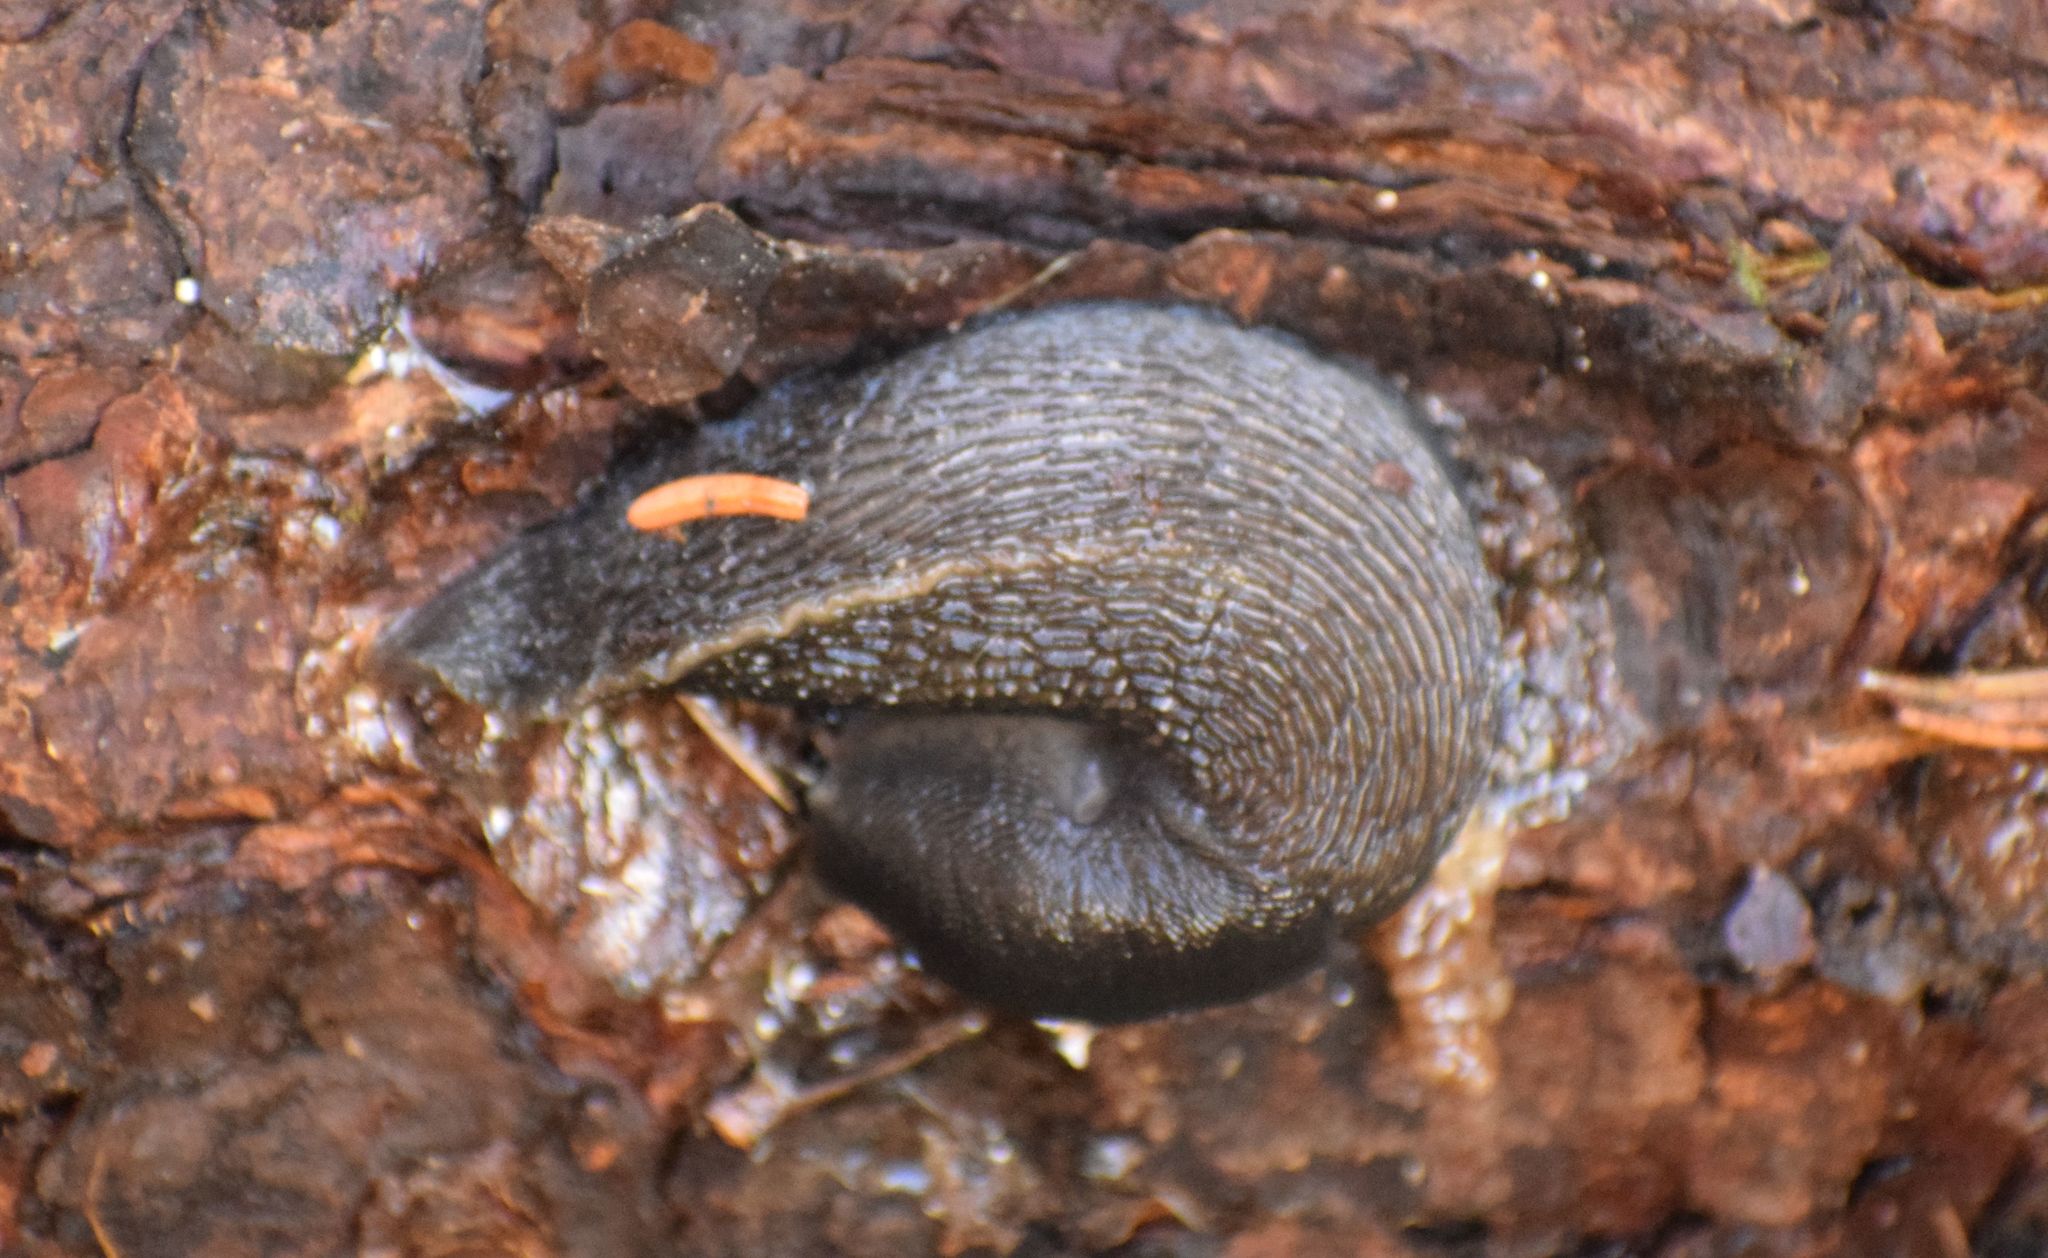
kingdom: Animalia
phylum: Mollusca
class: Gastropoda
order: Stylommatophora
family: Limacidae
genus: Limax
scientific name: Limax cinereoniger
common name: Ash-black slug
